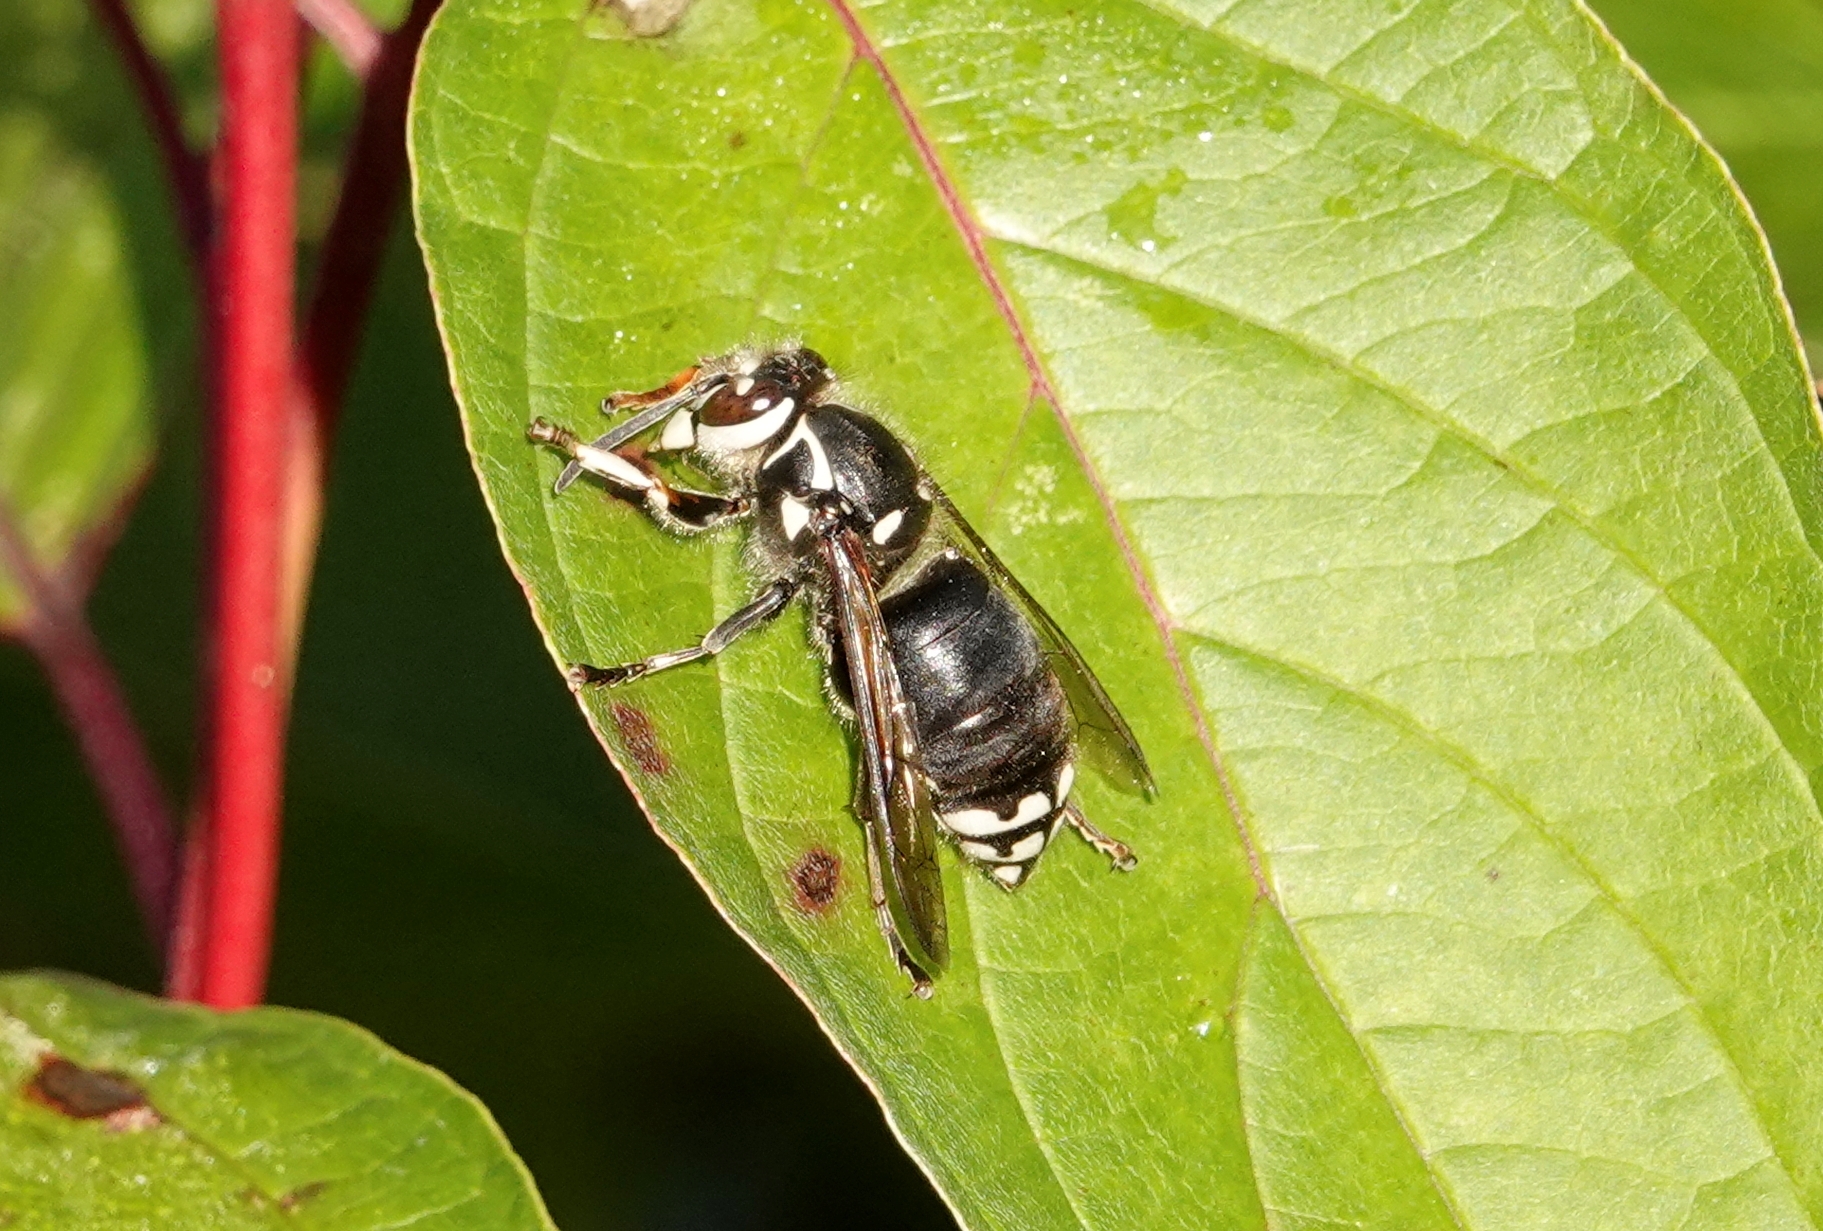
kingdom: Animalia
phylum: Arthropoda
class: Insecta
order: Hymenoptera
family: Vespidae
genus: Dolichovespula
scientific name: Dolichovespula maculata
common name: Bald-faced hornet
